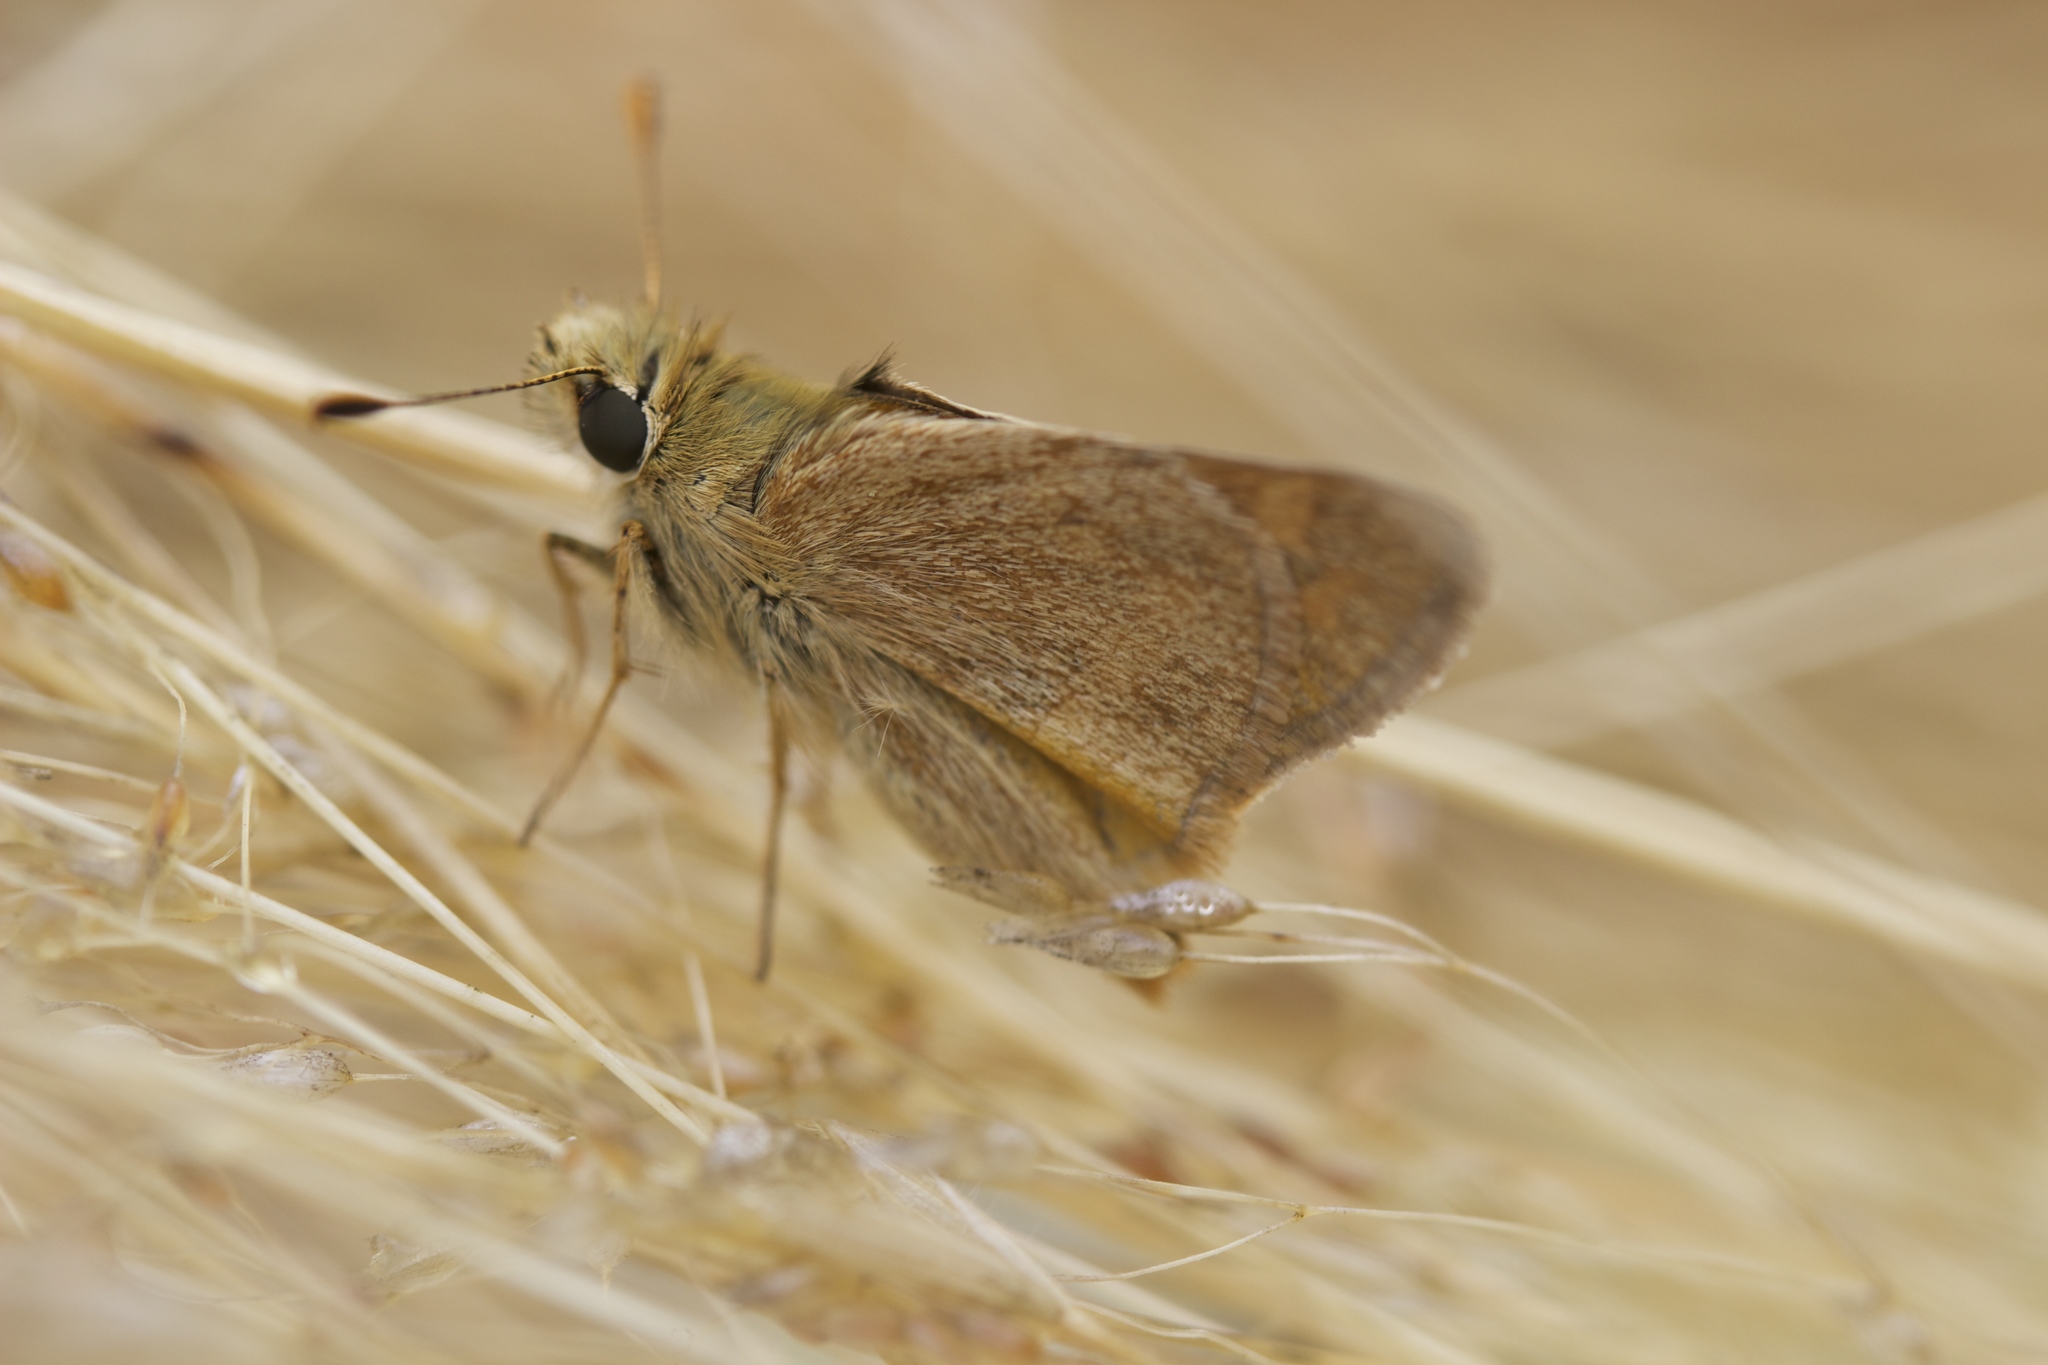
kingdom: Animalia
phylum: Arthropoda
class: Insecta
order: Lepidoptera
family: Hesperiidae
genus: Ochlodes
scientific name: Ochlodes sylvanoides
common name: Woodland skipper
